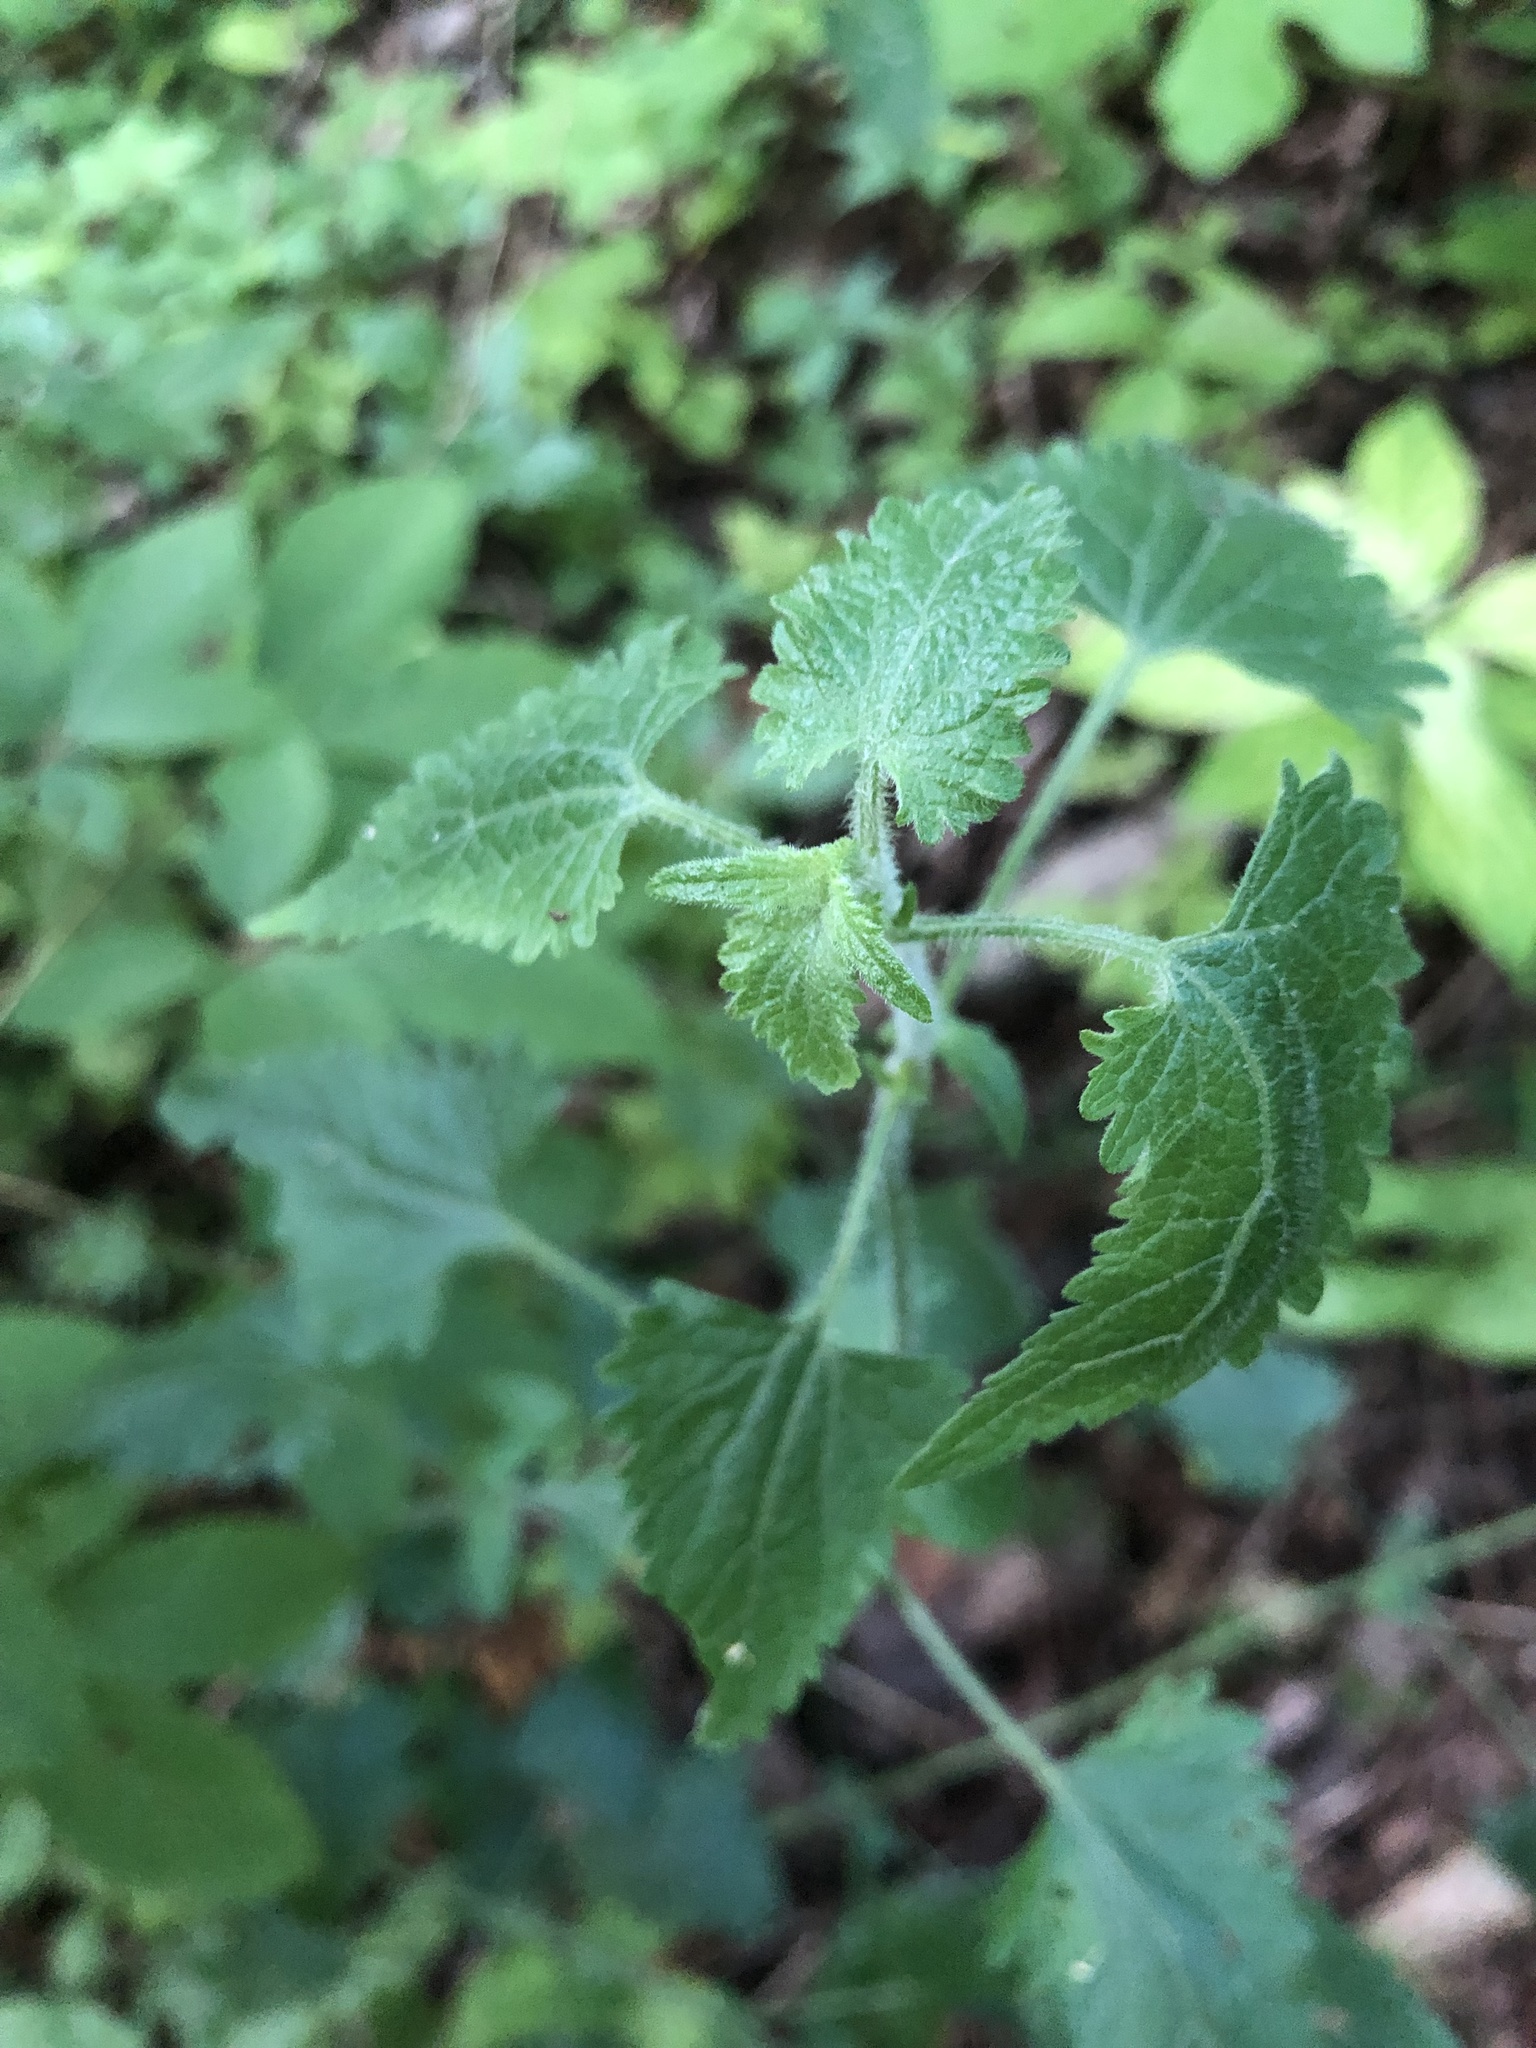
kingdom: Plantae
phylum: Tracheophyta
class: Magnoliopsida
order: Asterales
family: Asteraceae
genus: Fleischmannia
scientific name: Fleischmannia incarnata
